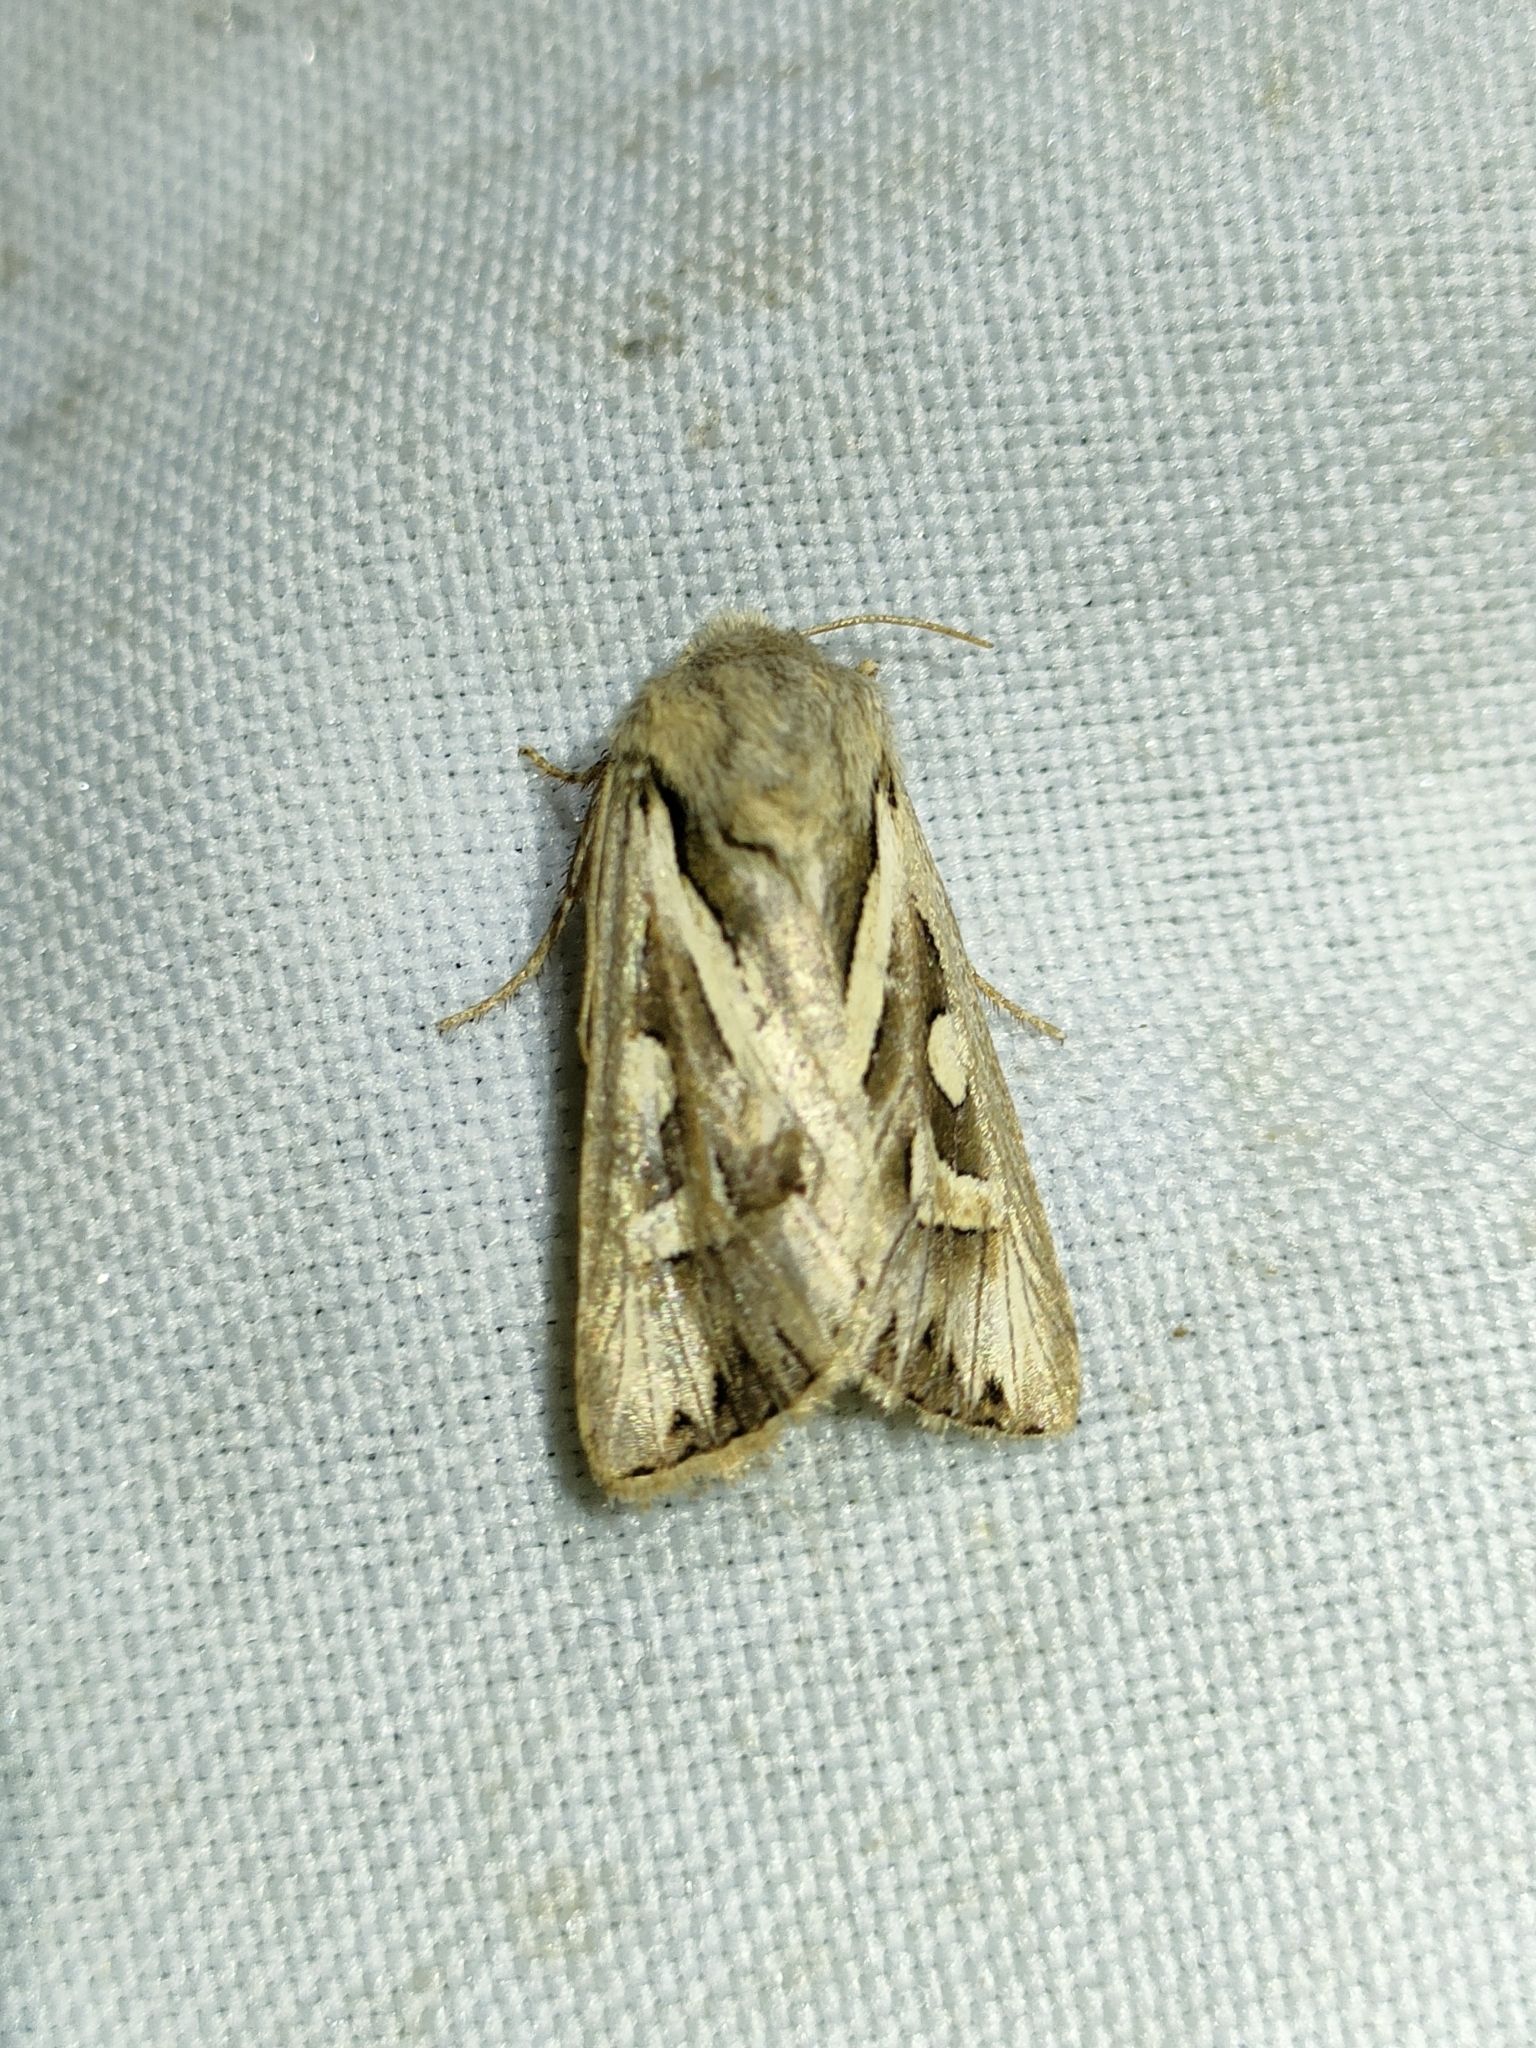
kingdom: Animalia
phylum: Arthropoda
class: Insecta
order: Lepidoptera
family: Noctuidae
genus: Eucoptocnemis
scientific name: Eucoptocnemis optabilis
